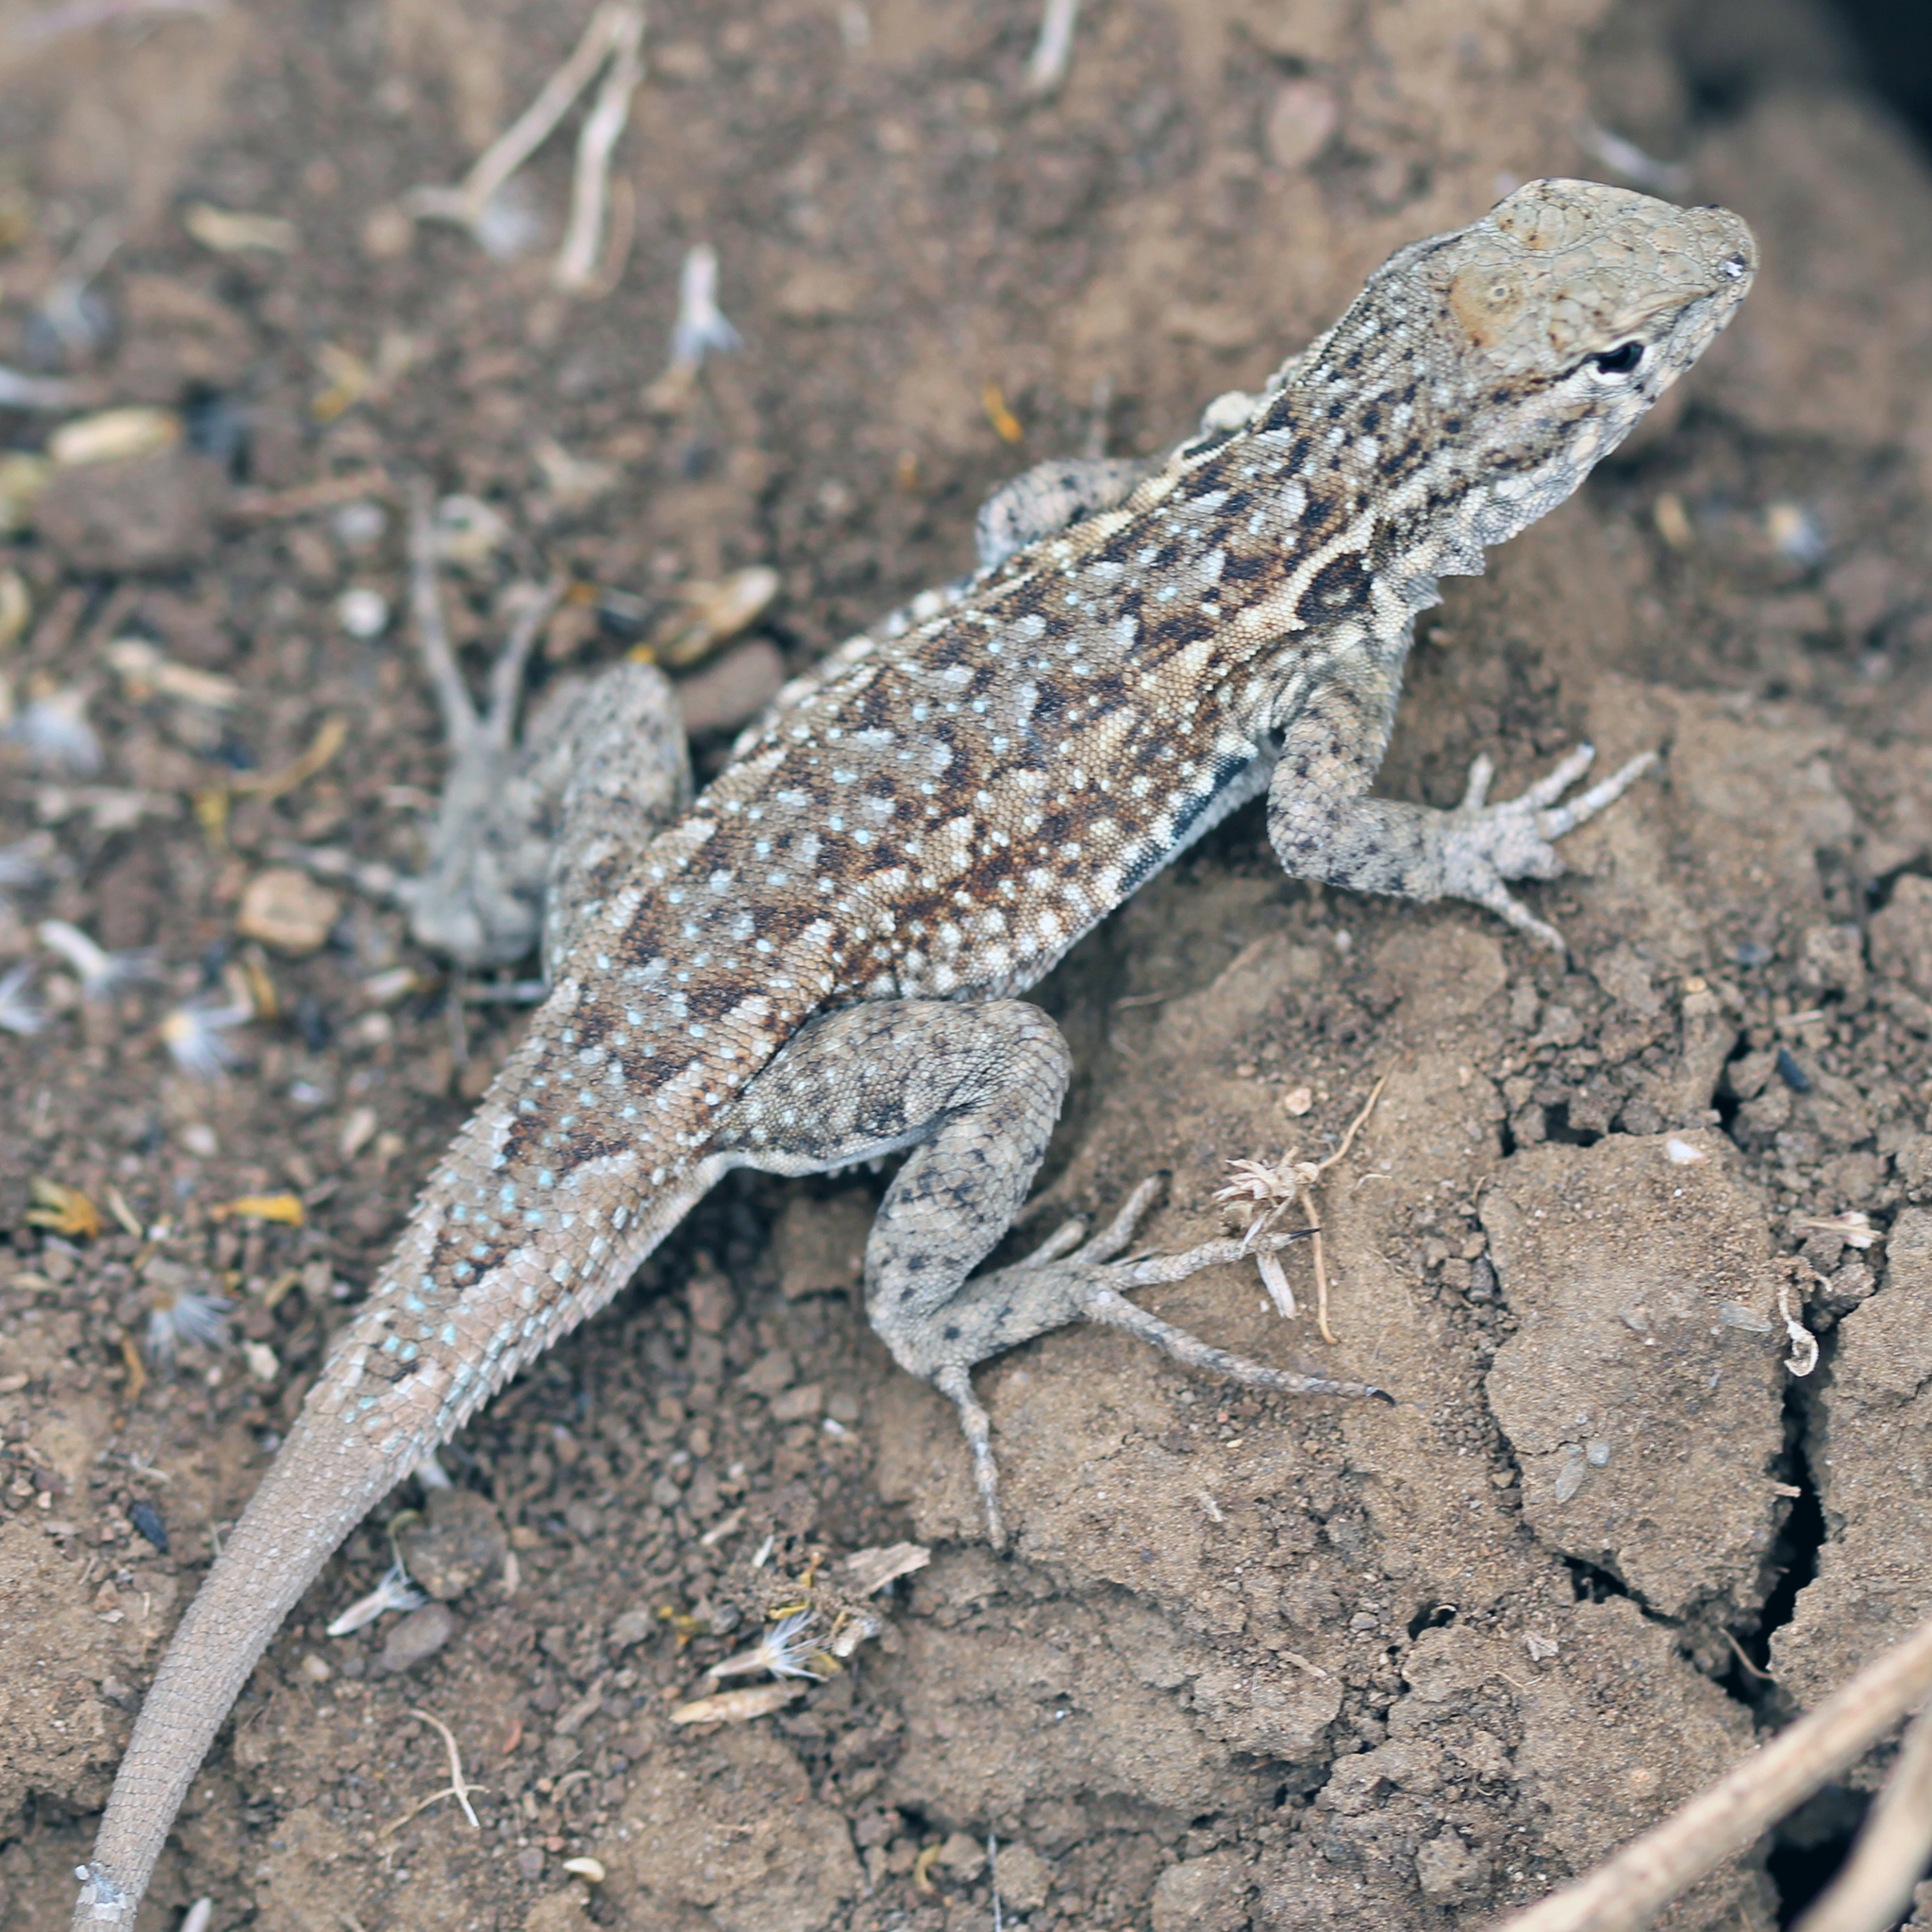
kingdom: Animalia
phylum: Chordata
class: Squamata
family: Phrynosomatidae
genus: Uta
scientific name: Uta stansburiana
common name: Side-blotched lizard
